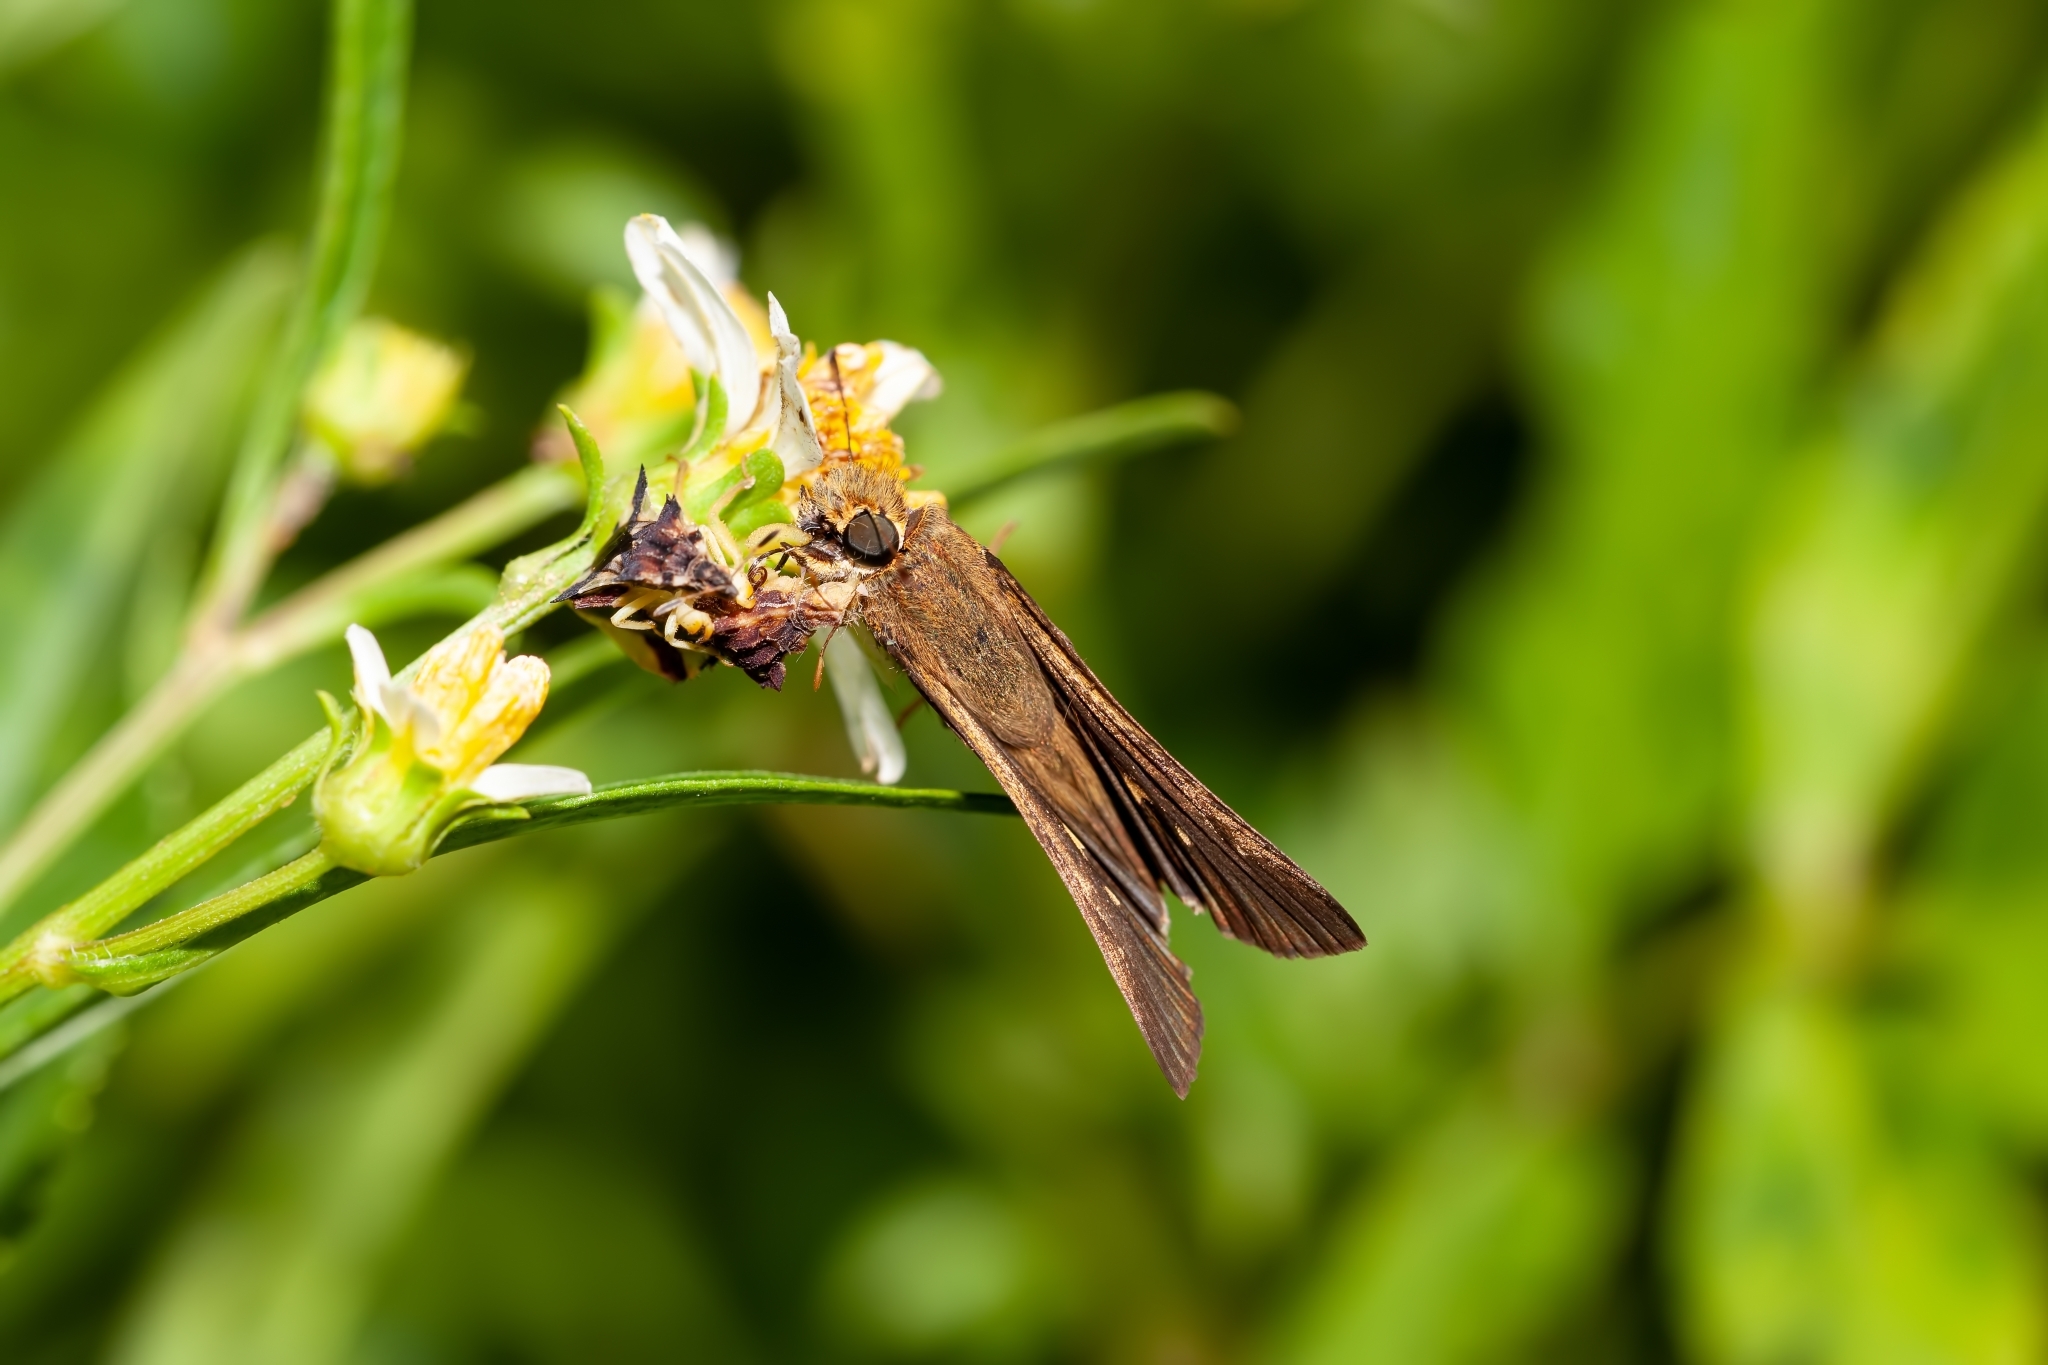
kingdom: Animalia
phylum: Arthropoda
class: Insecta
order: Lepidoptera
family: Hesperiidae
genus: Panoquina
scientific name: Panoquina ocola
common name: Ocola skipper
